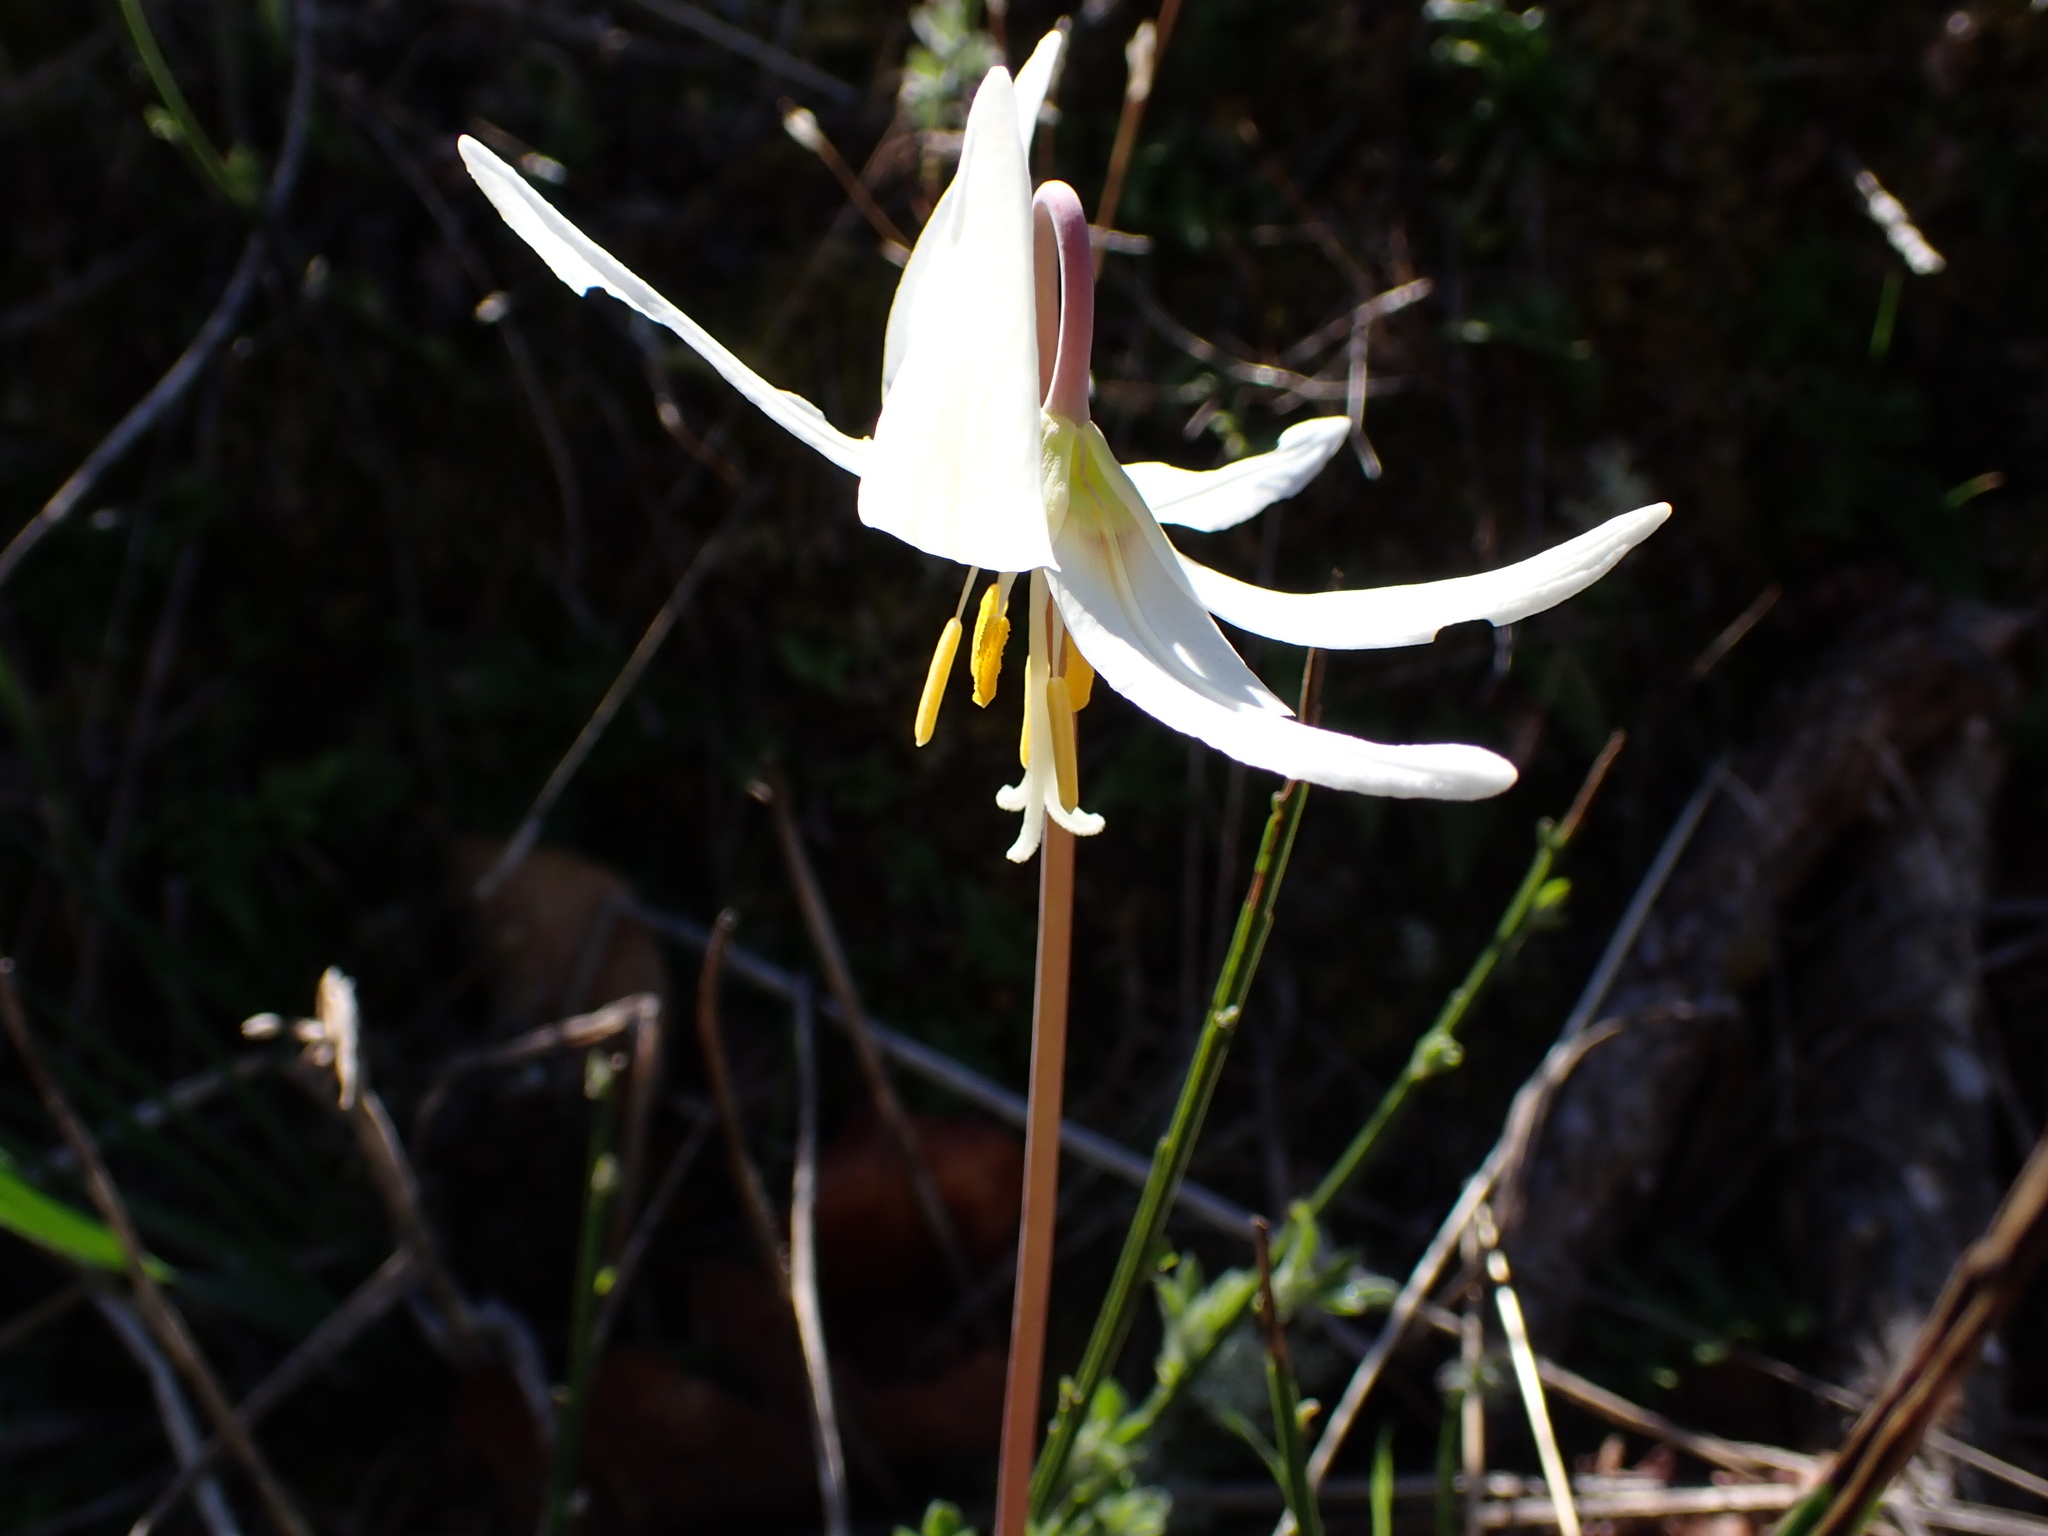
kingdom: Plantae
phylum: Tracheophyta
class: Liliopsida
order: Liliales
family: Liliaceae
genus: Erythronium
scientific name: Erythronium oregonum
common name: Giant adder's-tongue
